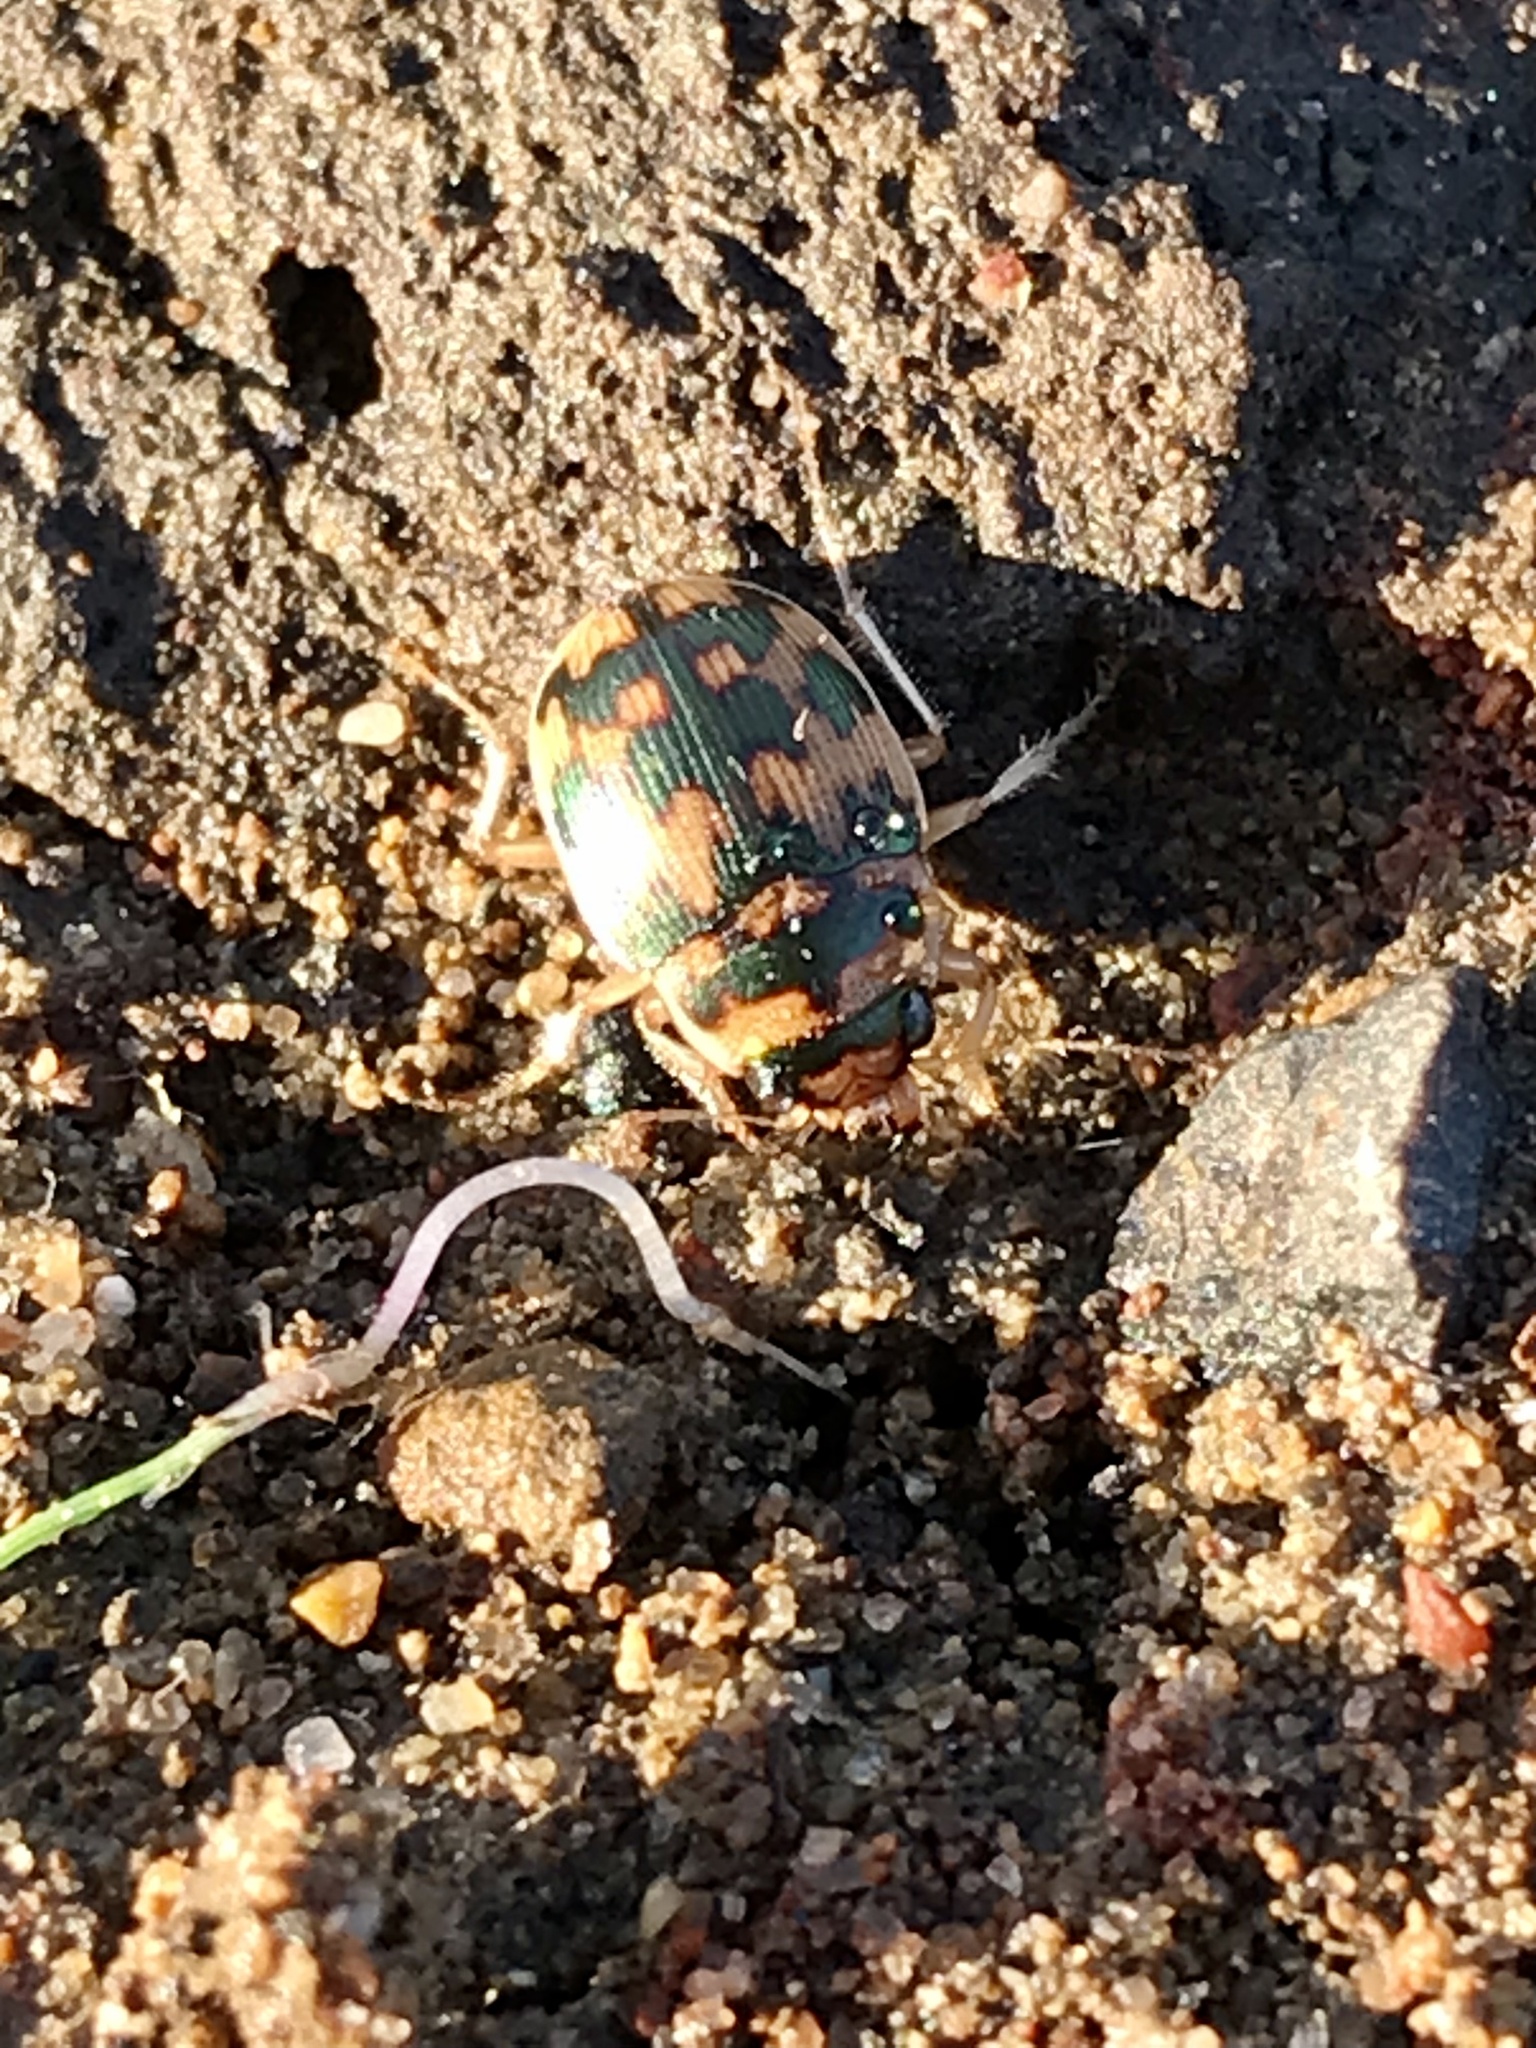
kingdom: Animalia
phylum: Arthropoda
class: Insecta
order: Coleoptera
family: Carabidae
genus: Omophron
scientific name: Omophron dentatum
